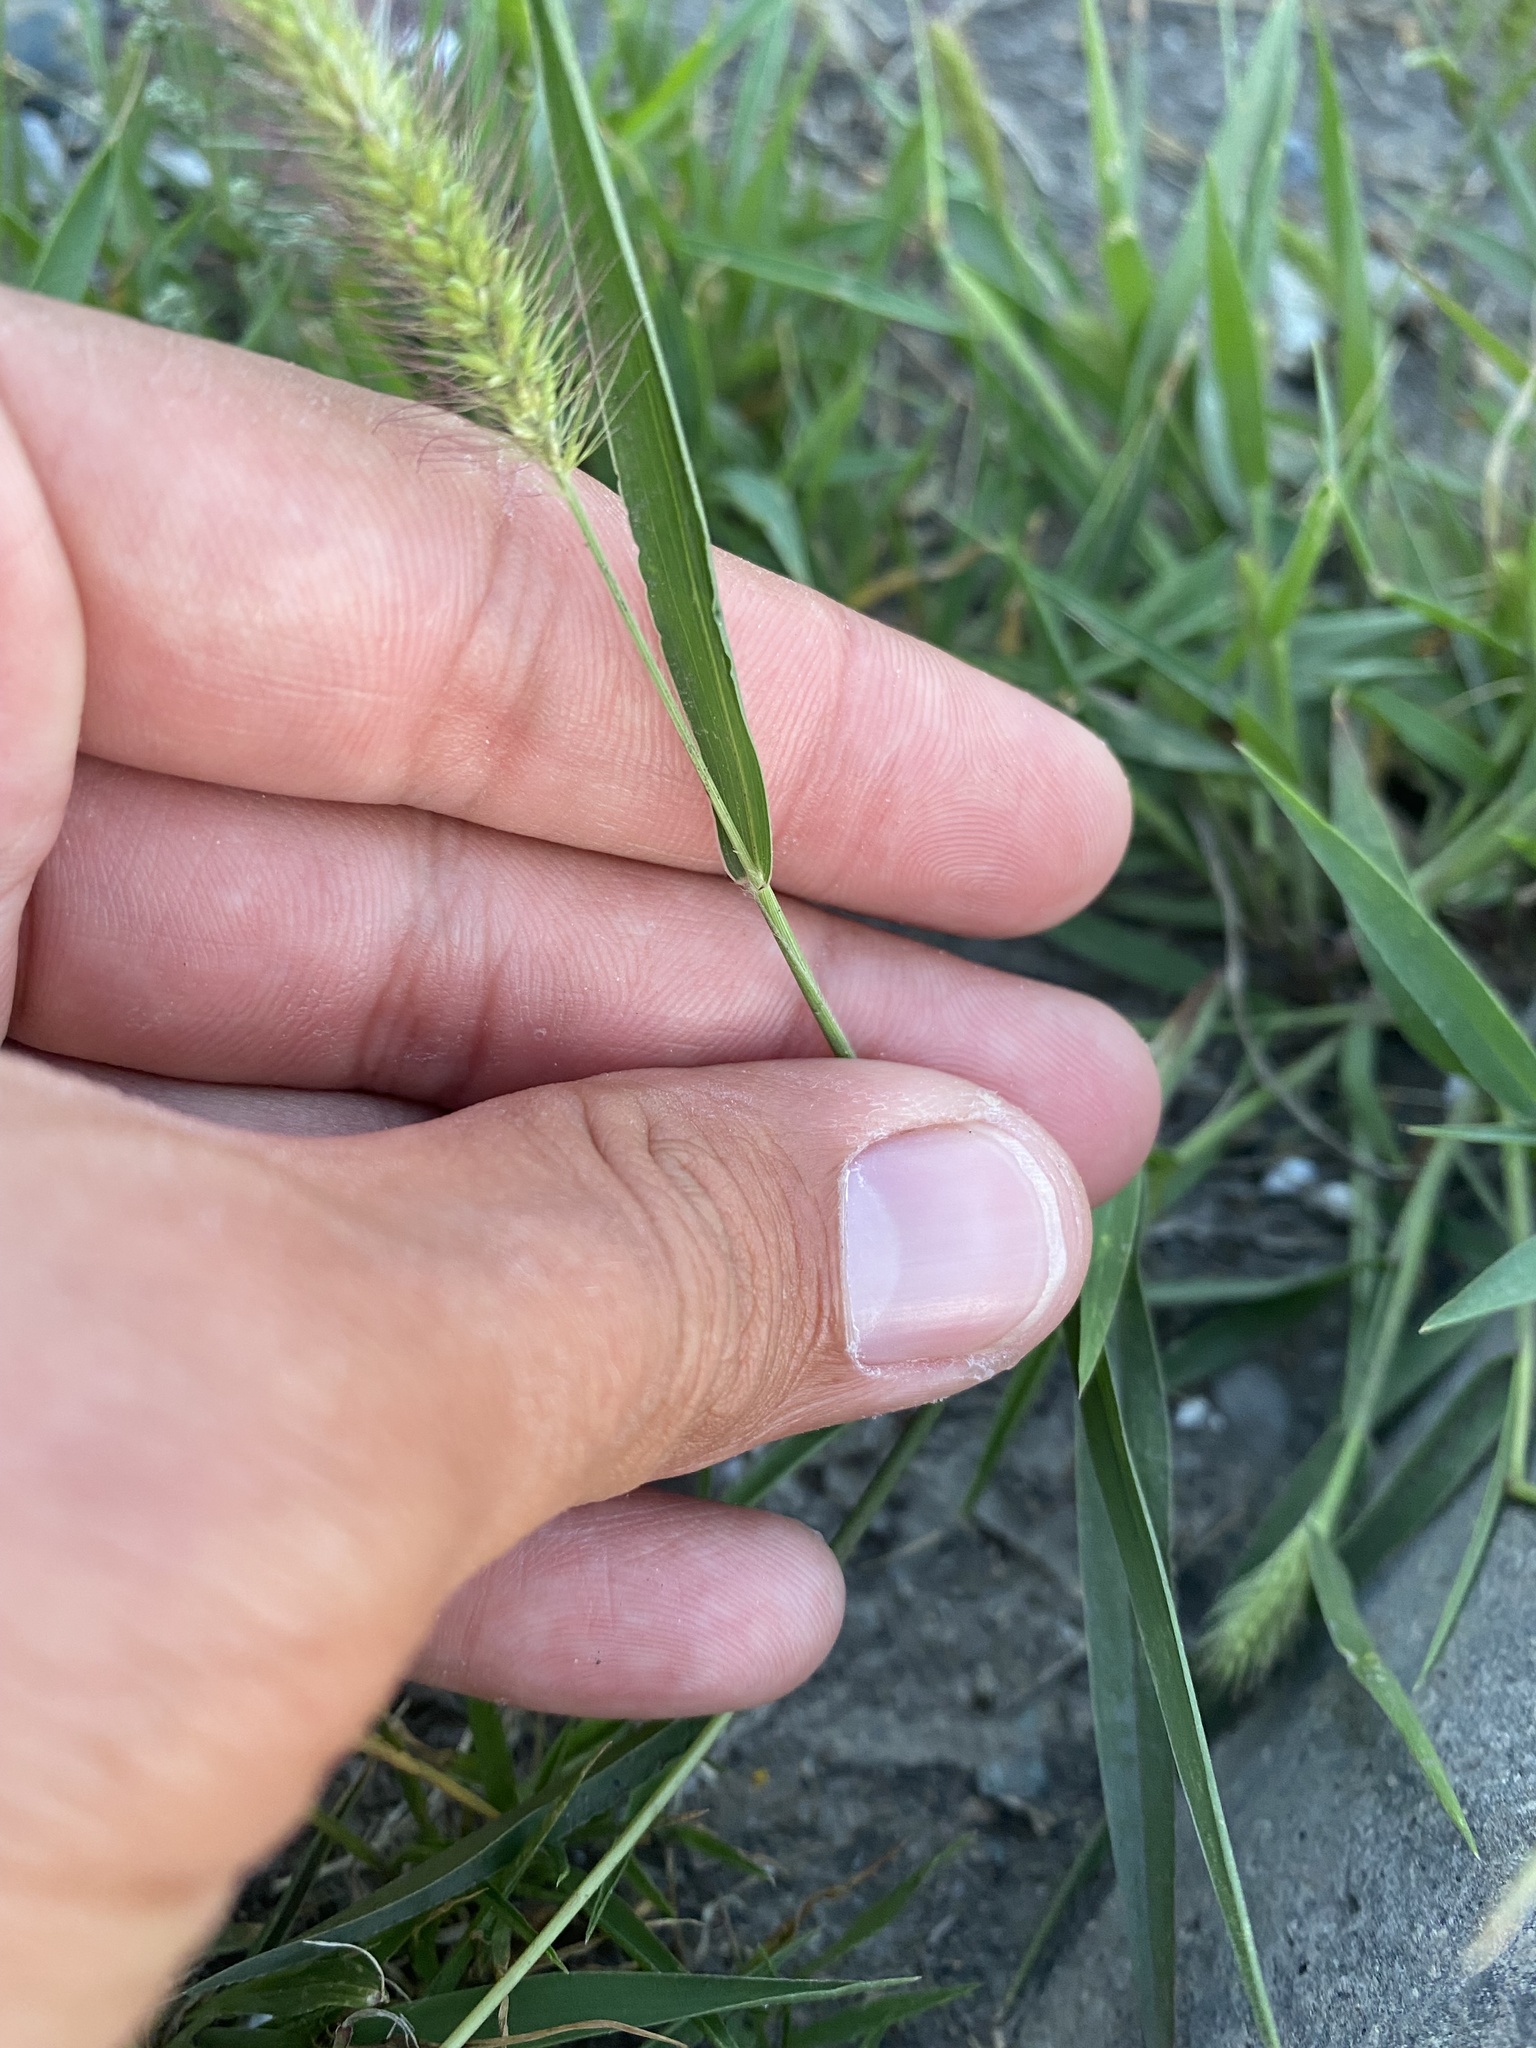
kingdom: Plantae
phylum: Tracheophyta
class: Liliopsida
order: Poales
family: Poaceae
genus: Setaria
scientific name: Setaria viridis
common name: Green bristlegrass
